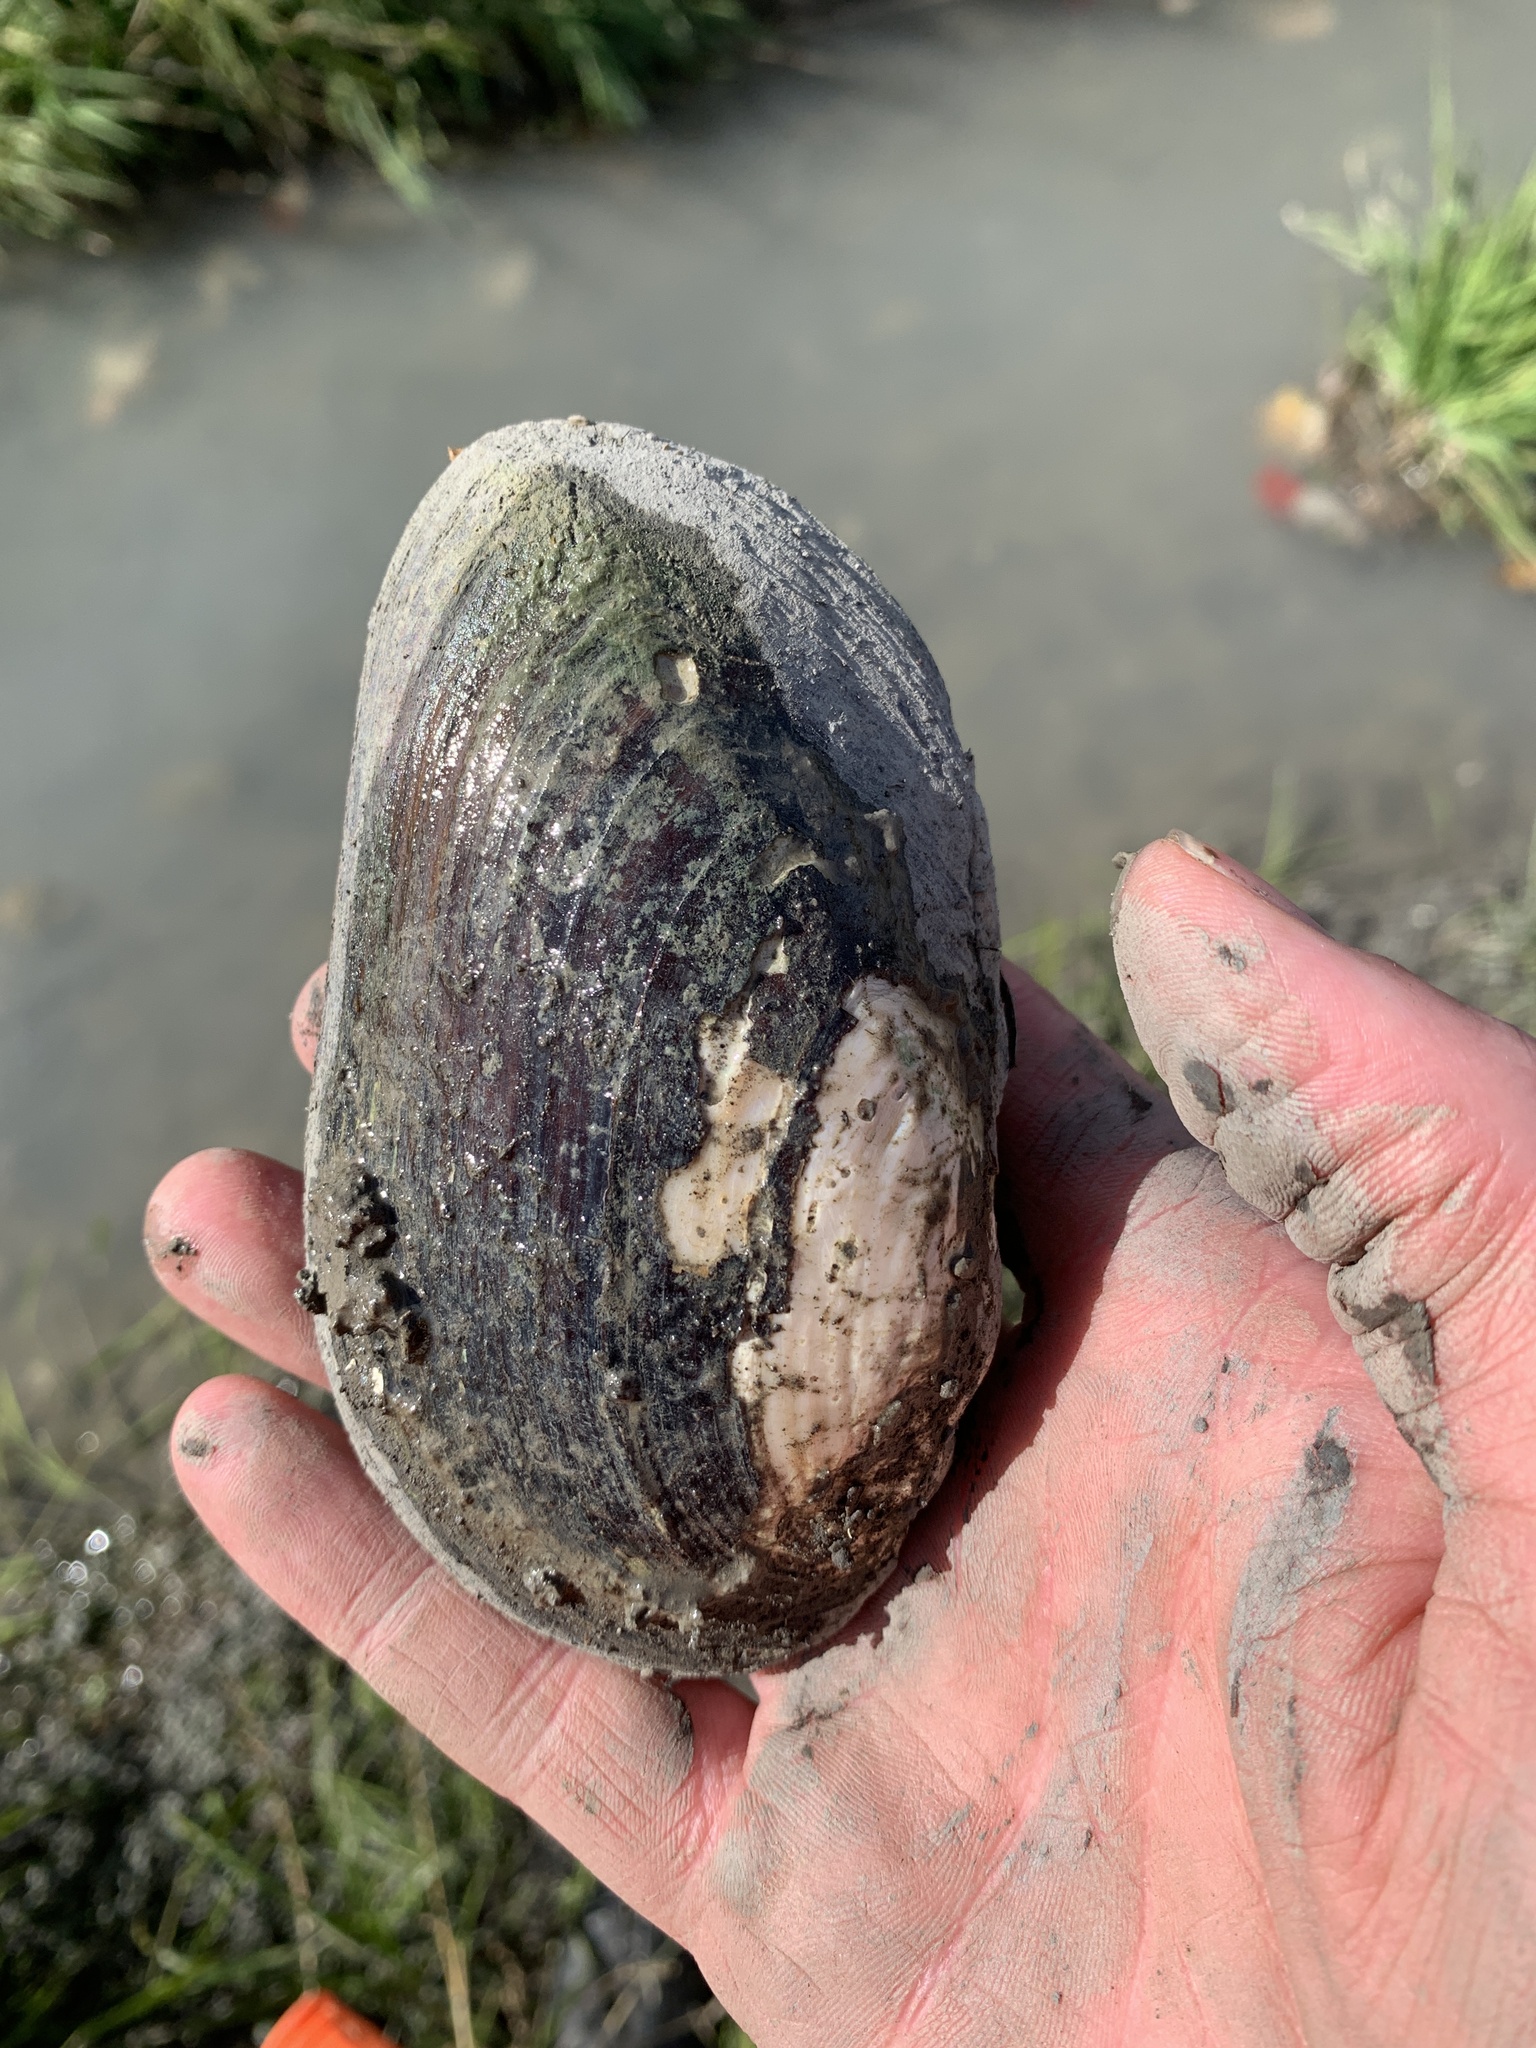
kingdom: Animalia
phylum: Mollusca
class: Bivalvia
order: Unionida
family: Unionidae
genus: Elliptio
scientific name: Elliptio complanata
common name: Eastern elliptio
